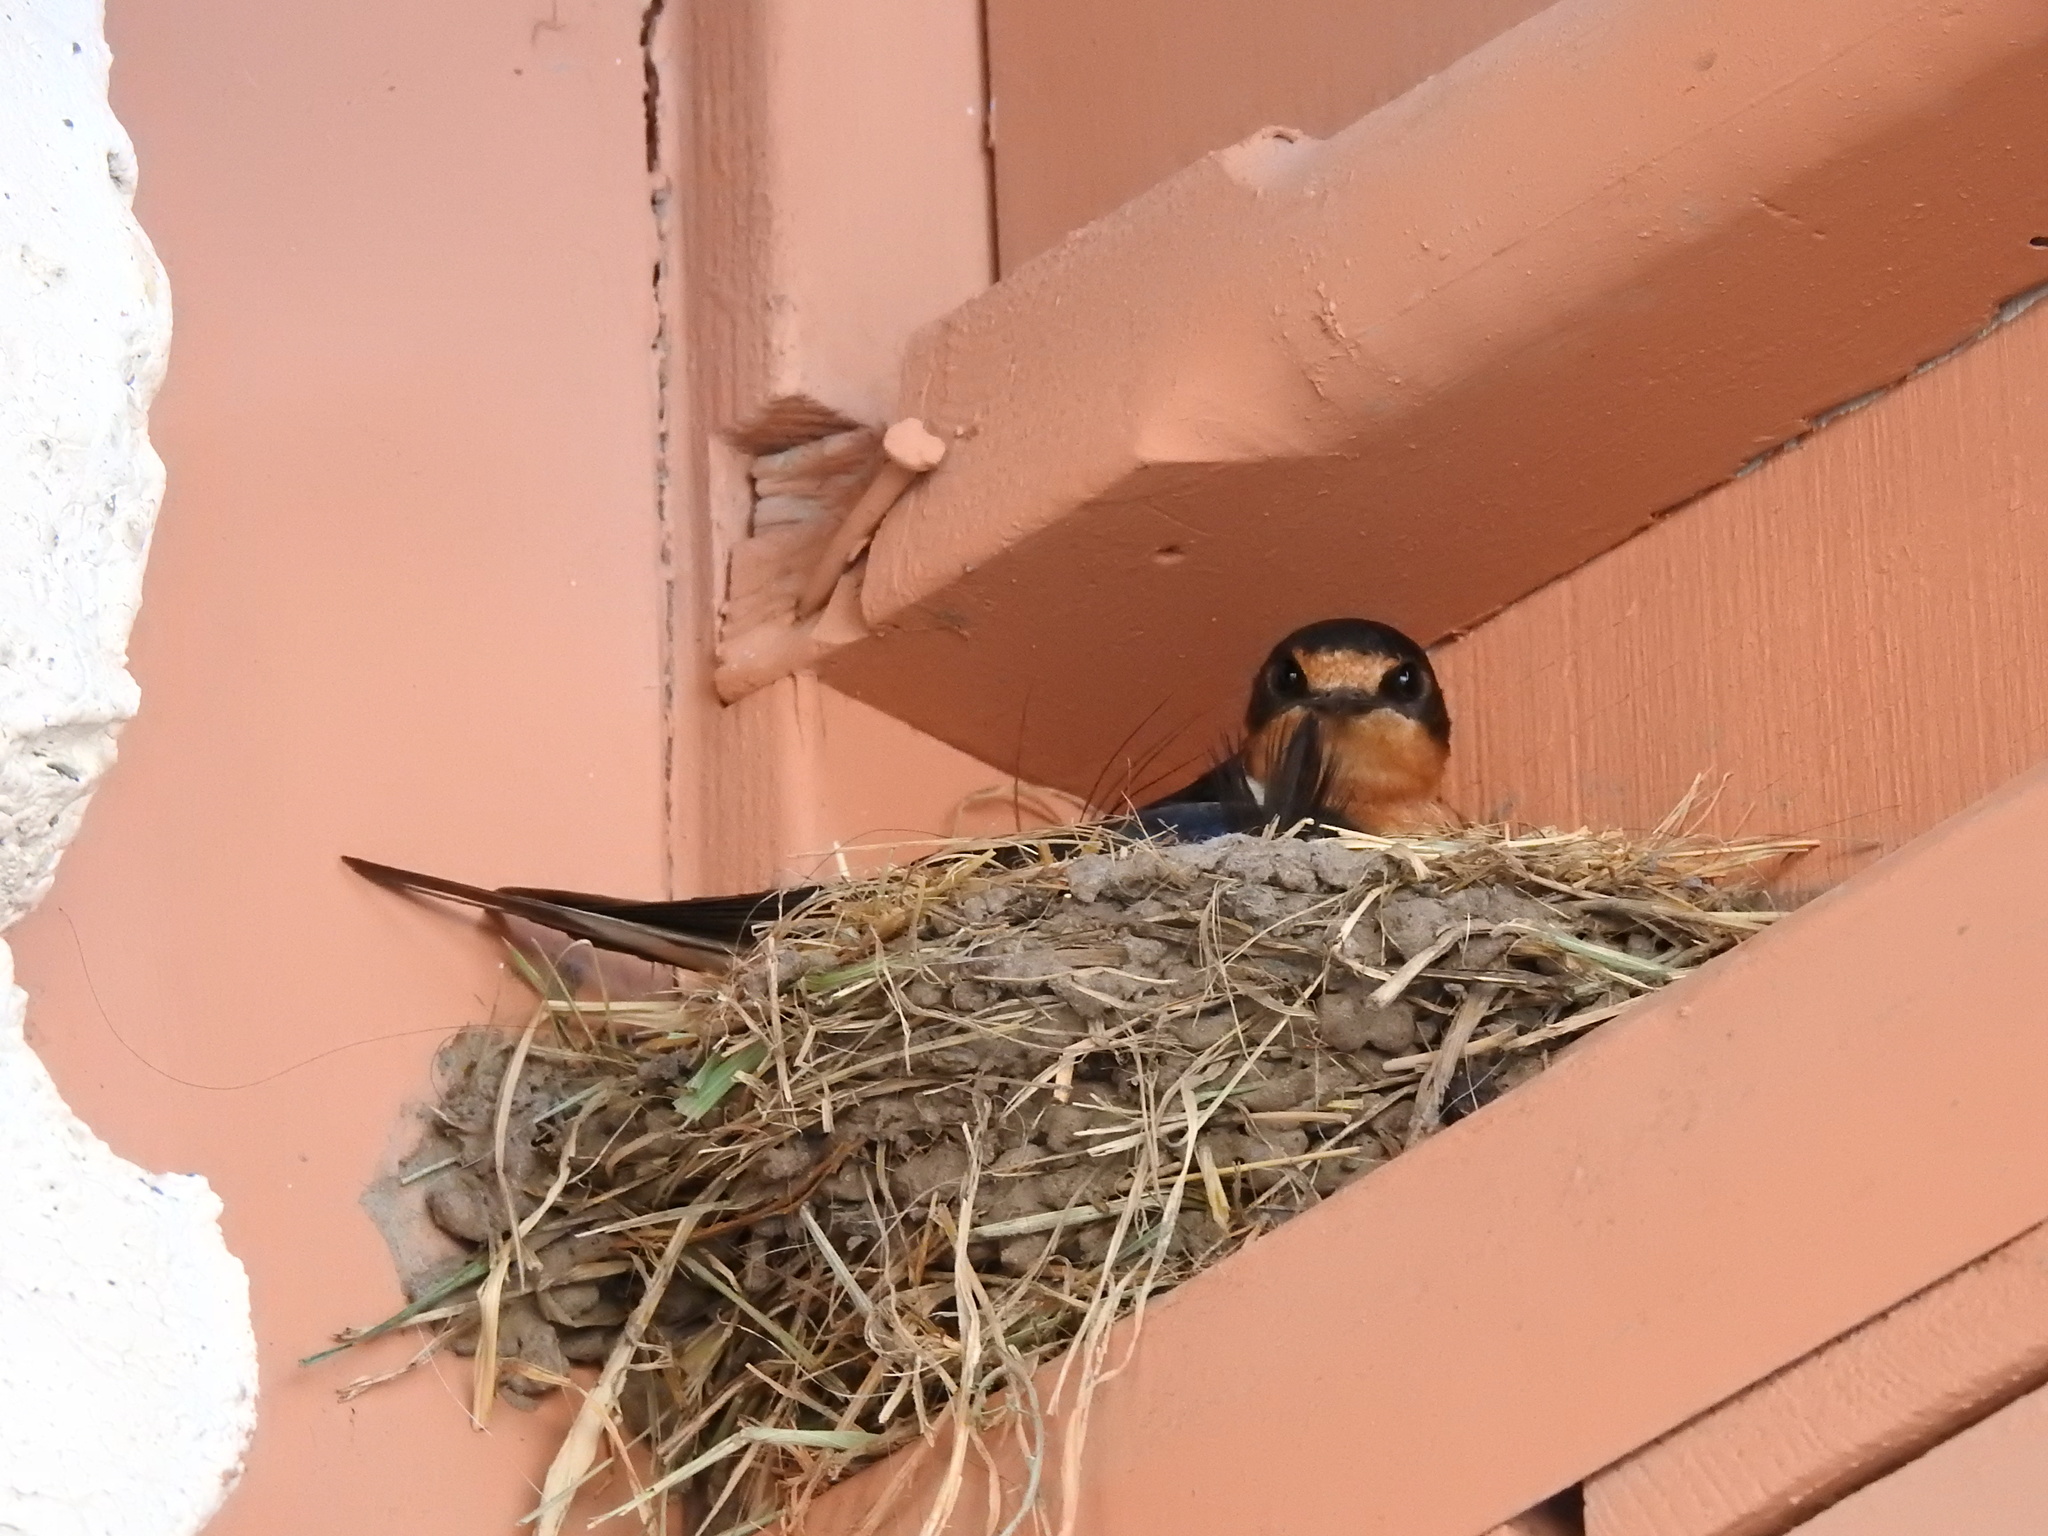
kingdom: Animalia
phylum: Chordata
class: Aves
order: Passeriformes
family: Hirundinidae
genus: Hirundo
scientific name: Hirundo rustica
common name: Barn swallow
